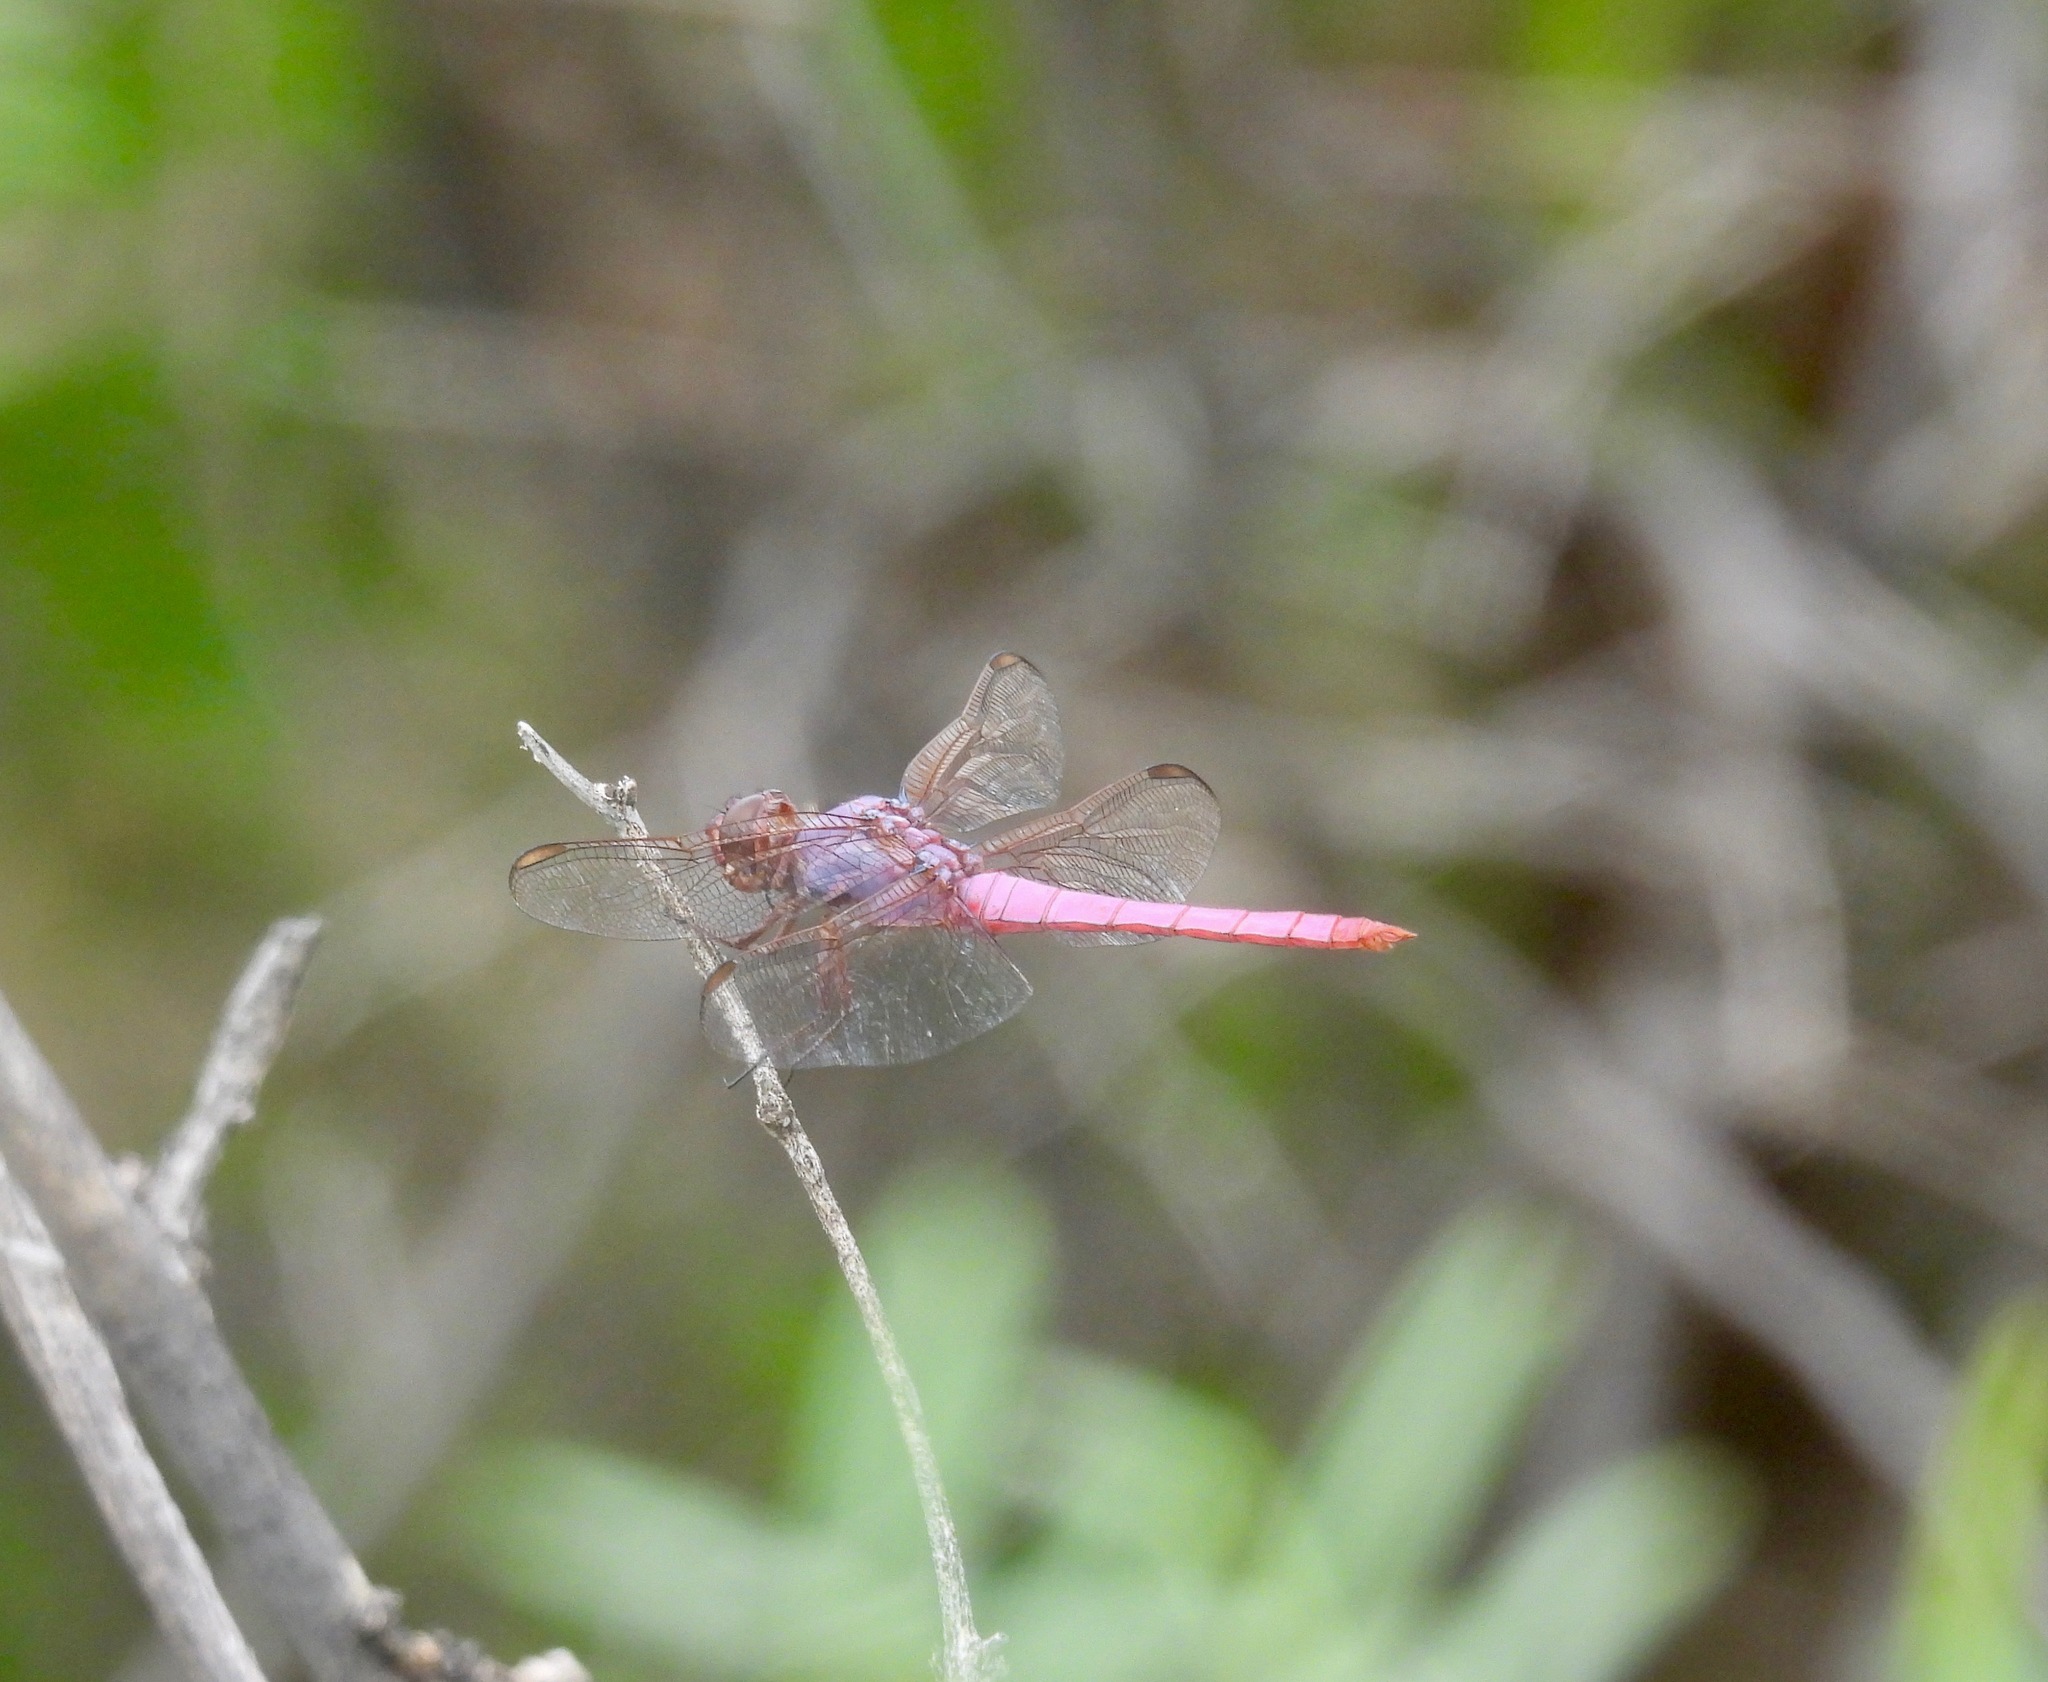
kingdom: Animalia
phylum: Arthropoda
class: Insecta
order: Odonata
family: Libellulidae
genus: Orthemis
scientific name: Orthemis ferruginea
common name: Roseate skimmer
